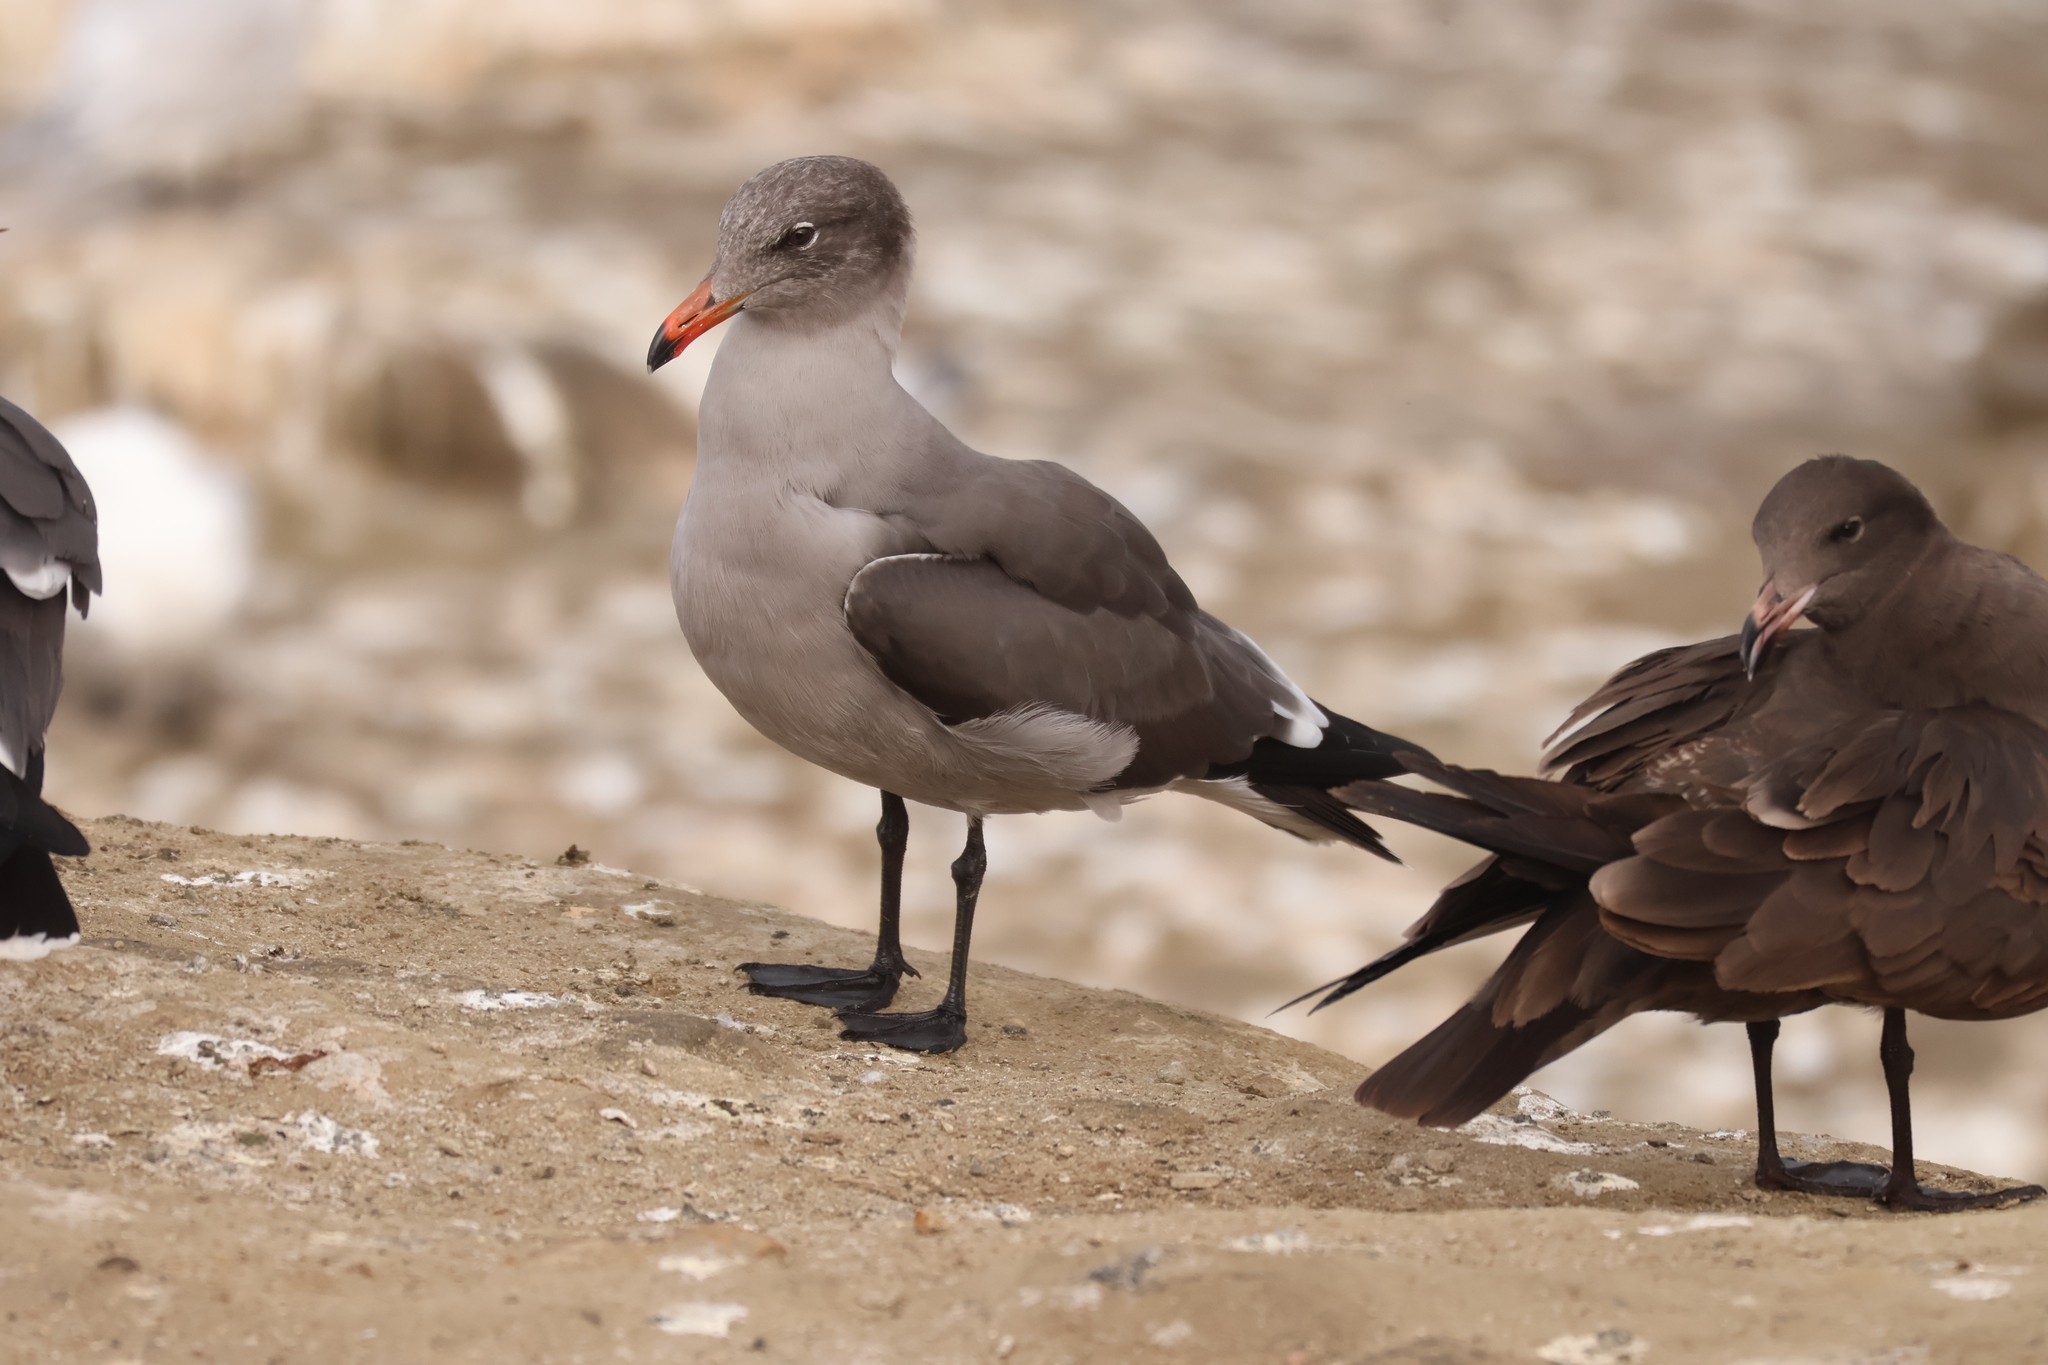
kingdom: Animalia
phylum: Chordata
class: Aves
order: Charadriiformes
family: Laridae
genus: Larus
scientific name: Larus heermanni
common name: Heermann's gull
